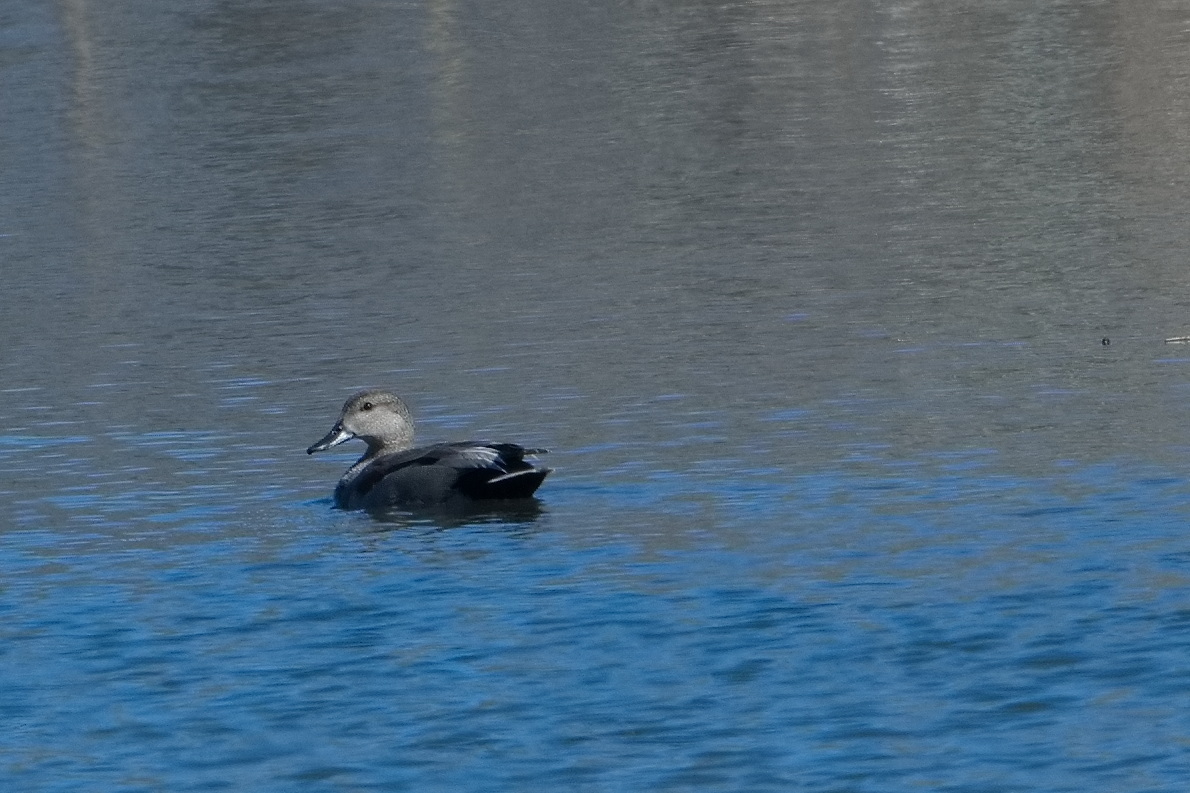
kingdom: Animalia
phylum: Chordata
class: Aves
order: Anseriformes
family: Anatidae
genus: Mareca
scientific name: Mareca strepera
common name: Gadwall
